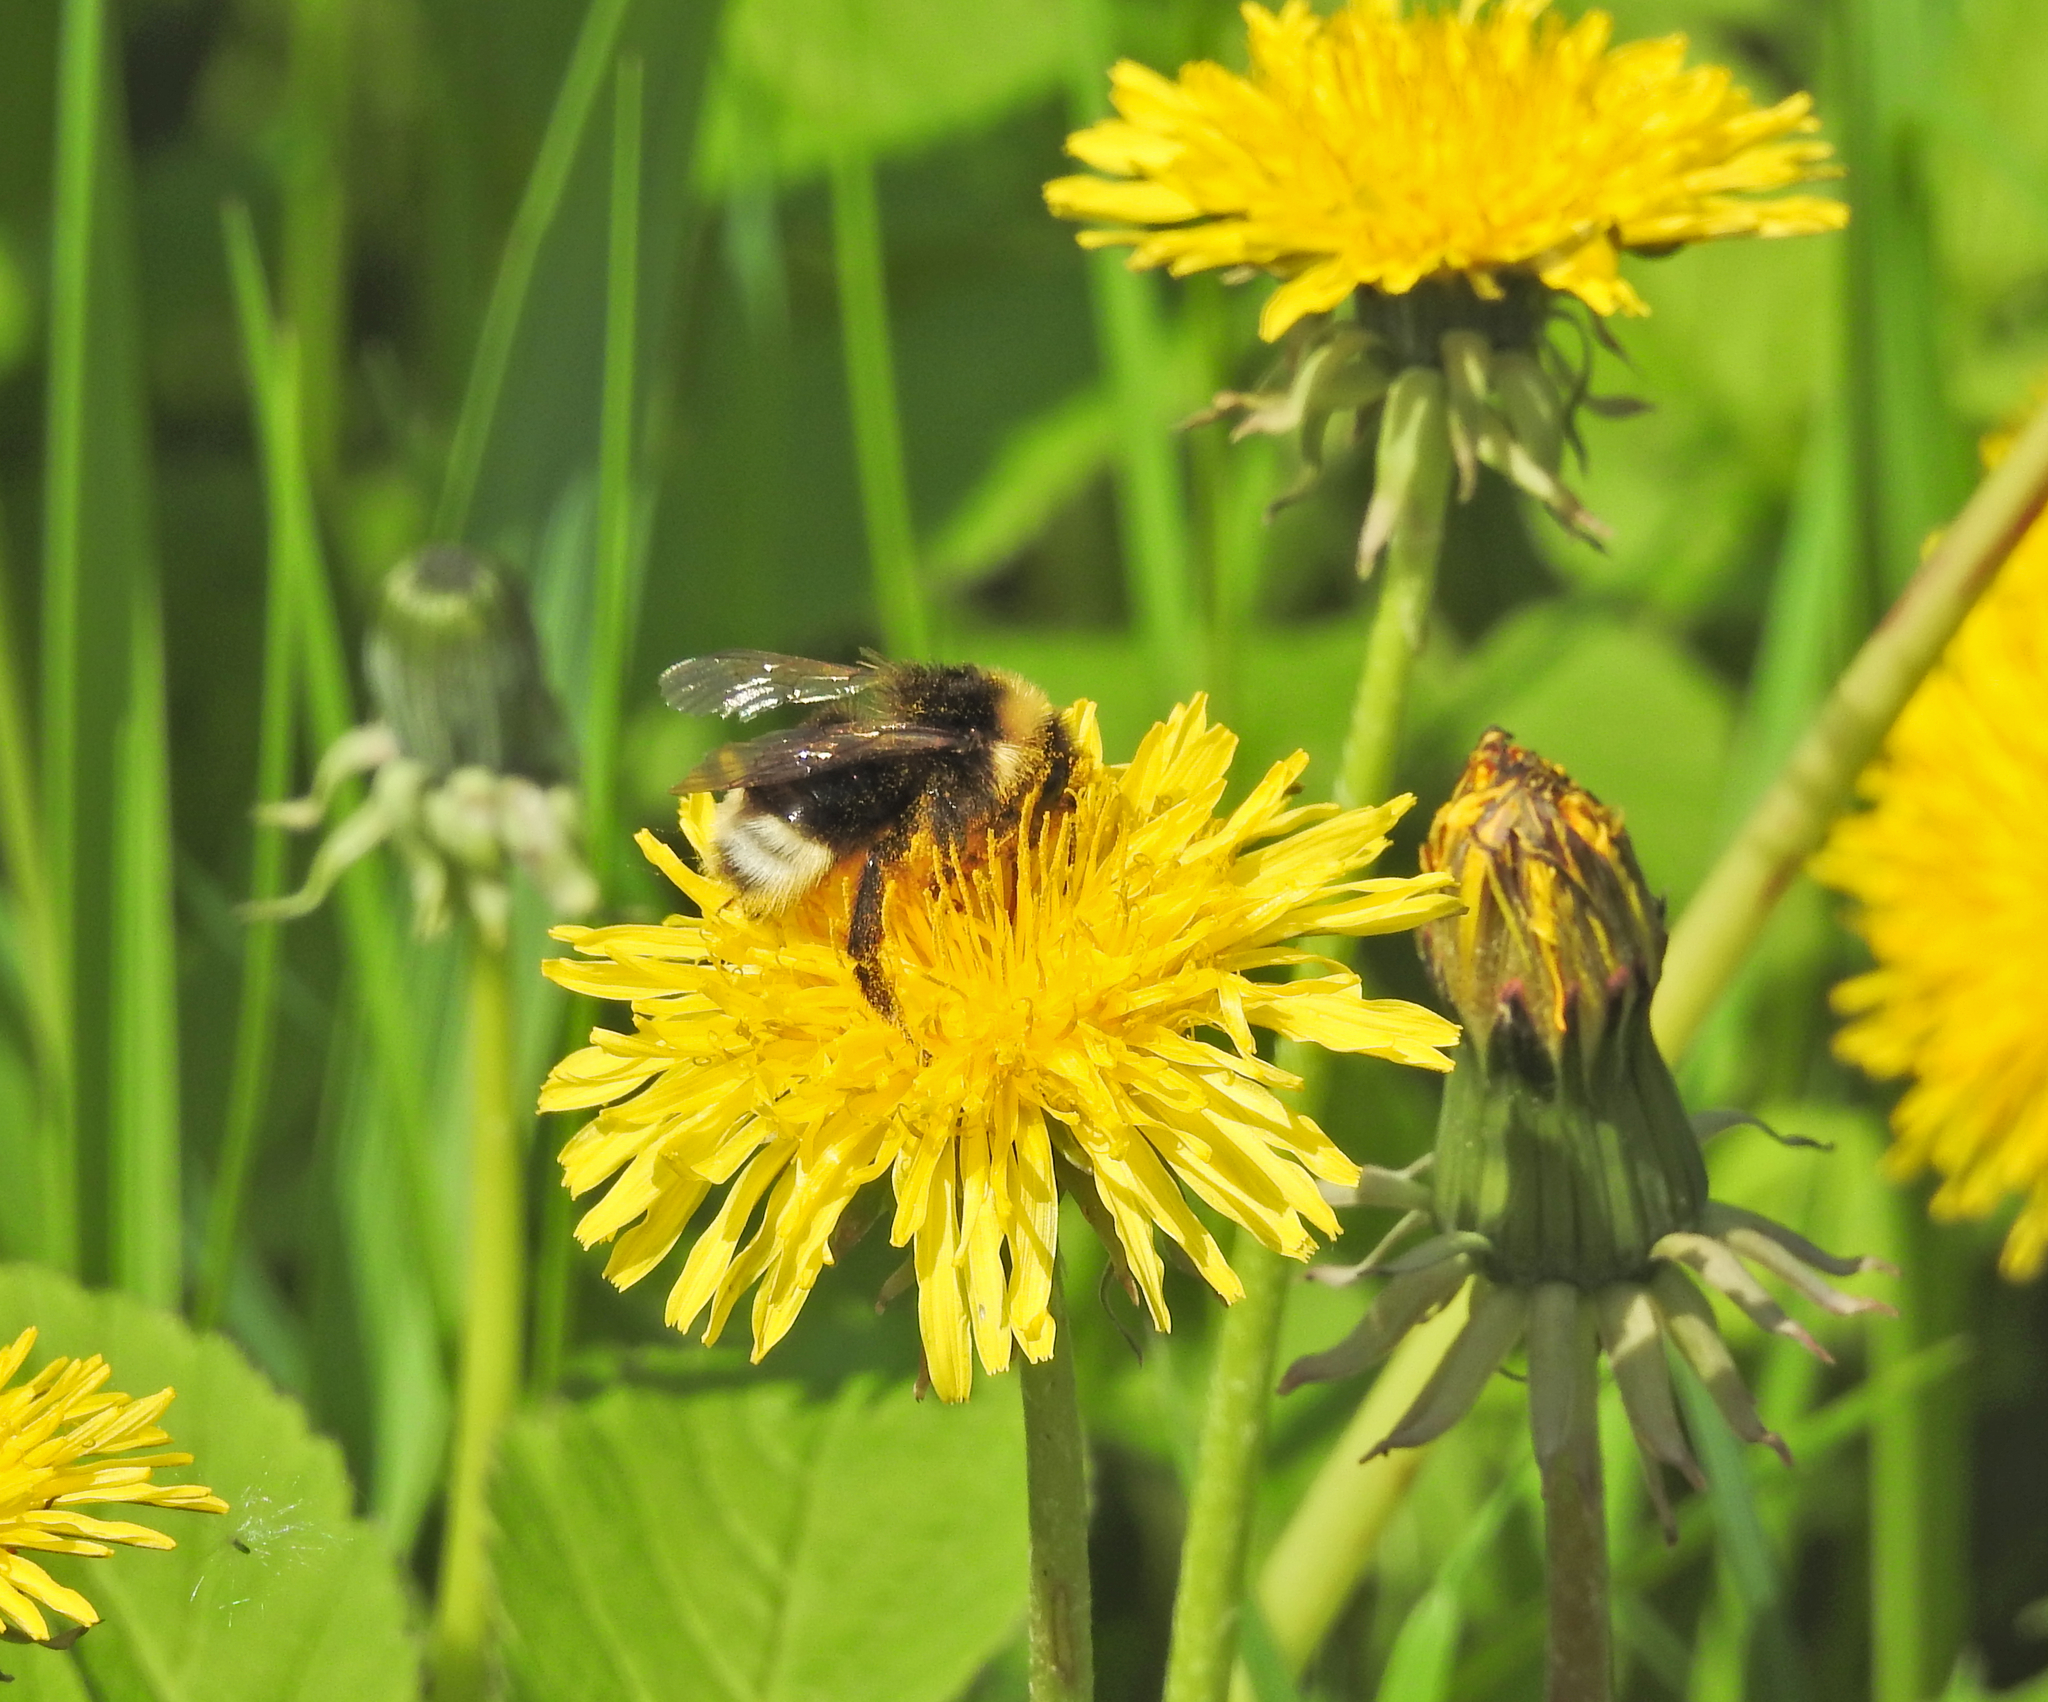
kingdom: Animalia
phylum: Arthropoda
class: Insecta
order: Hymenoptera
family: Apidae
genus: Bombus
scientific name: Bombus bohemicus
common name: Gypsy cuckoo bee
